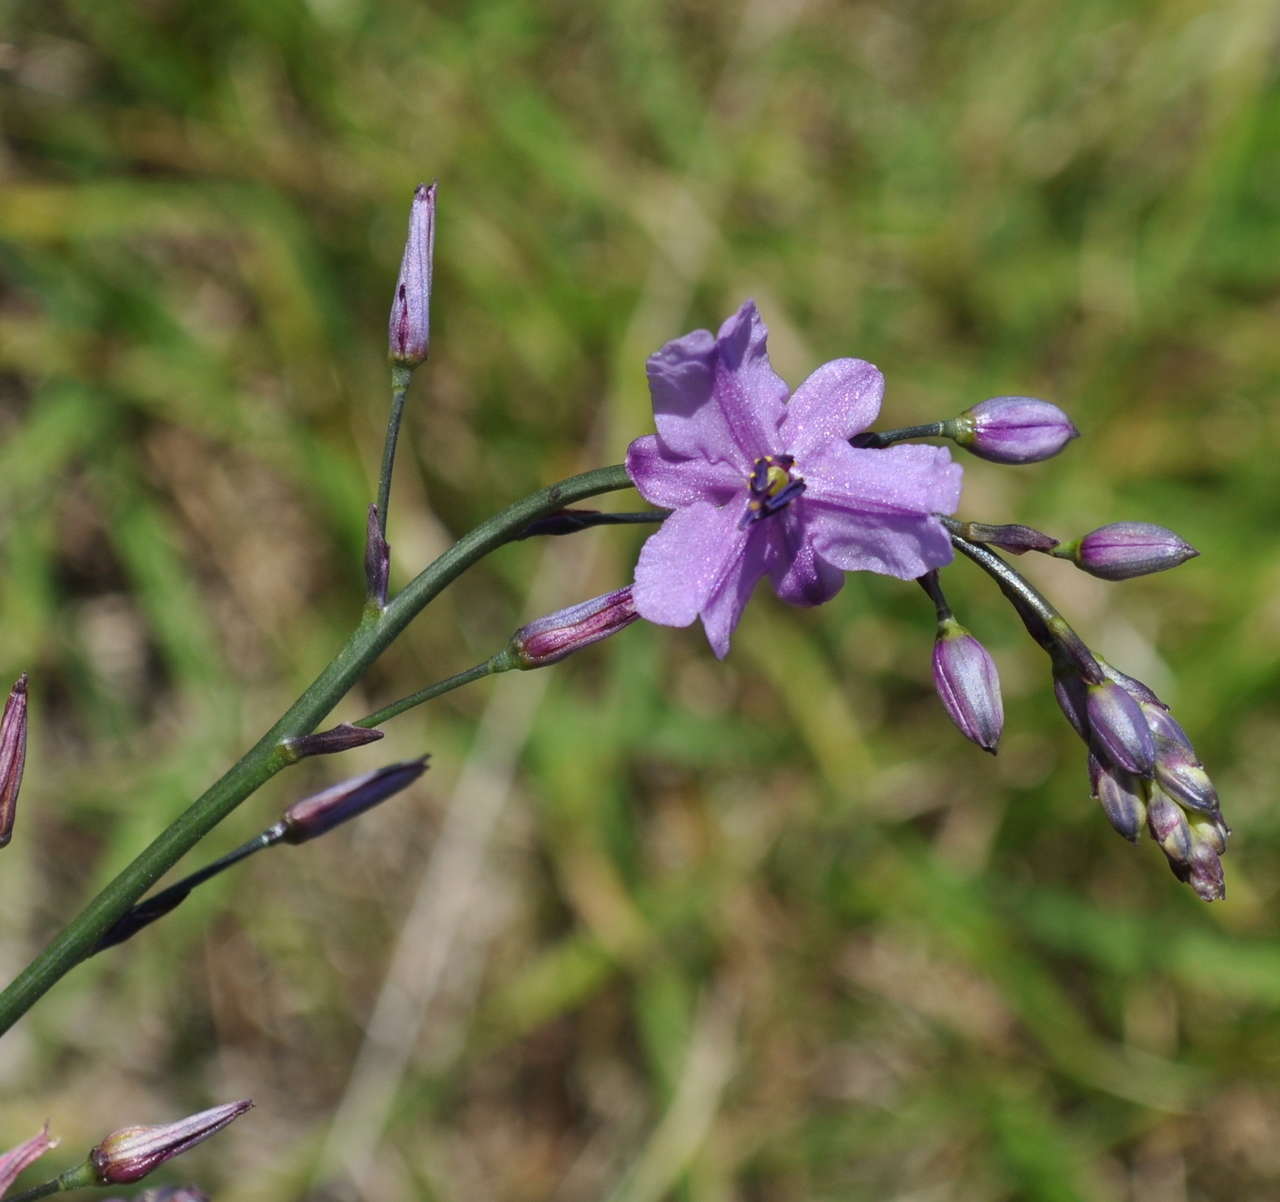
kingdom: Plantae
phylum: Tracheophyta
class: Liliopsida
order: Asparagales
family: Asparagaceae
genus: Arthropodium
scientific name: Arthropodium strictum
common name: Chocolate-lily
